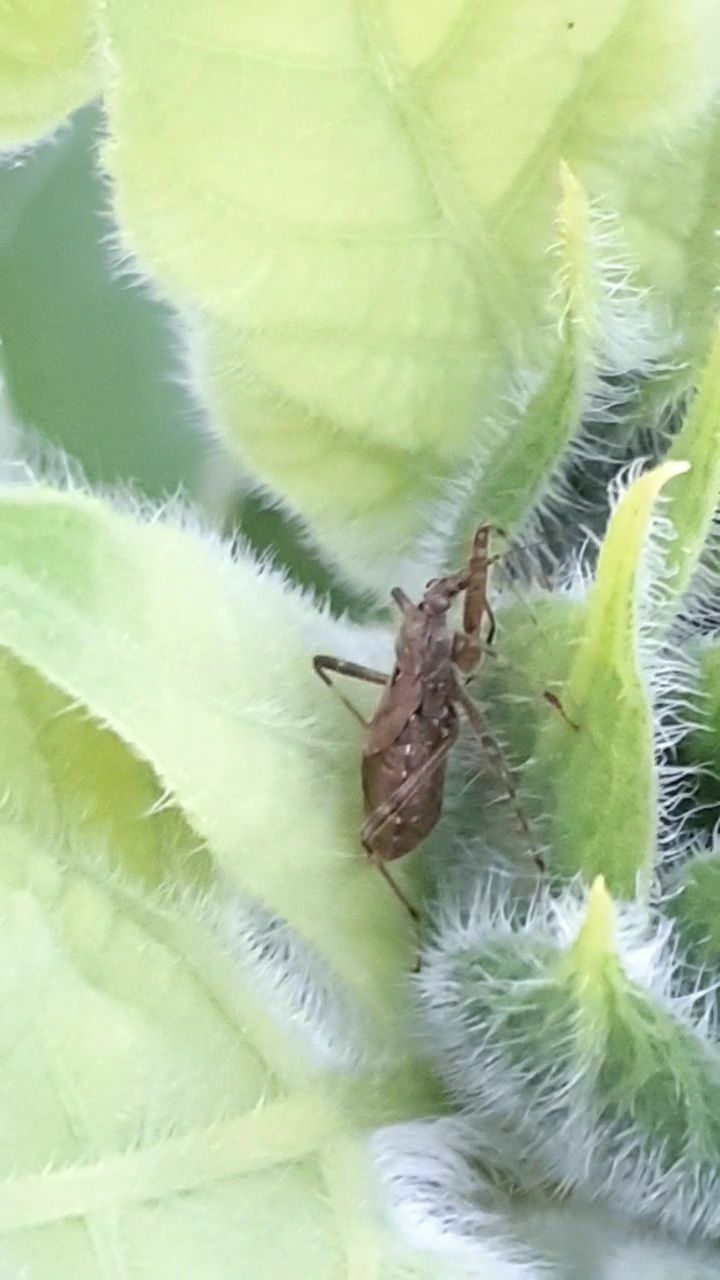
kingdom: Animalia
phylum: Arthropoda
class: Insecta
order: Hemiptera
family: Nabidae
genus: Himacerus
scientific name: Himacerus apterus
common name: Tree damsel bug
